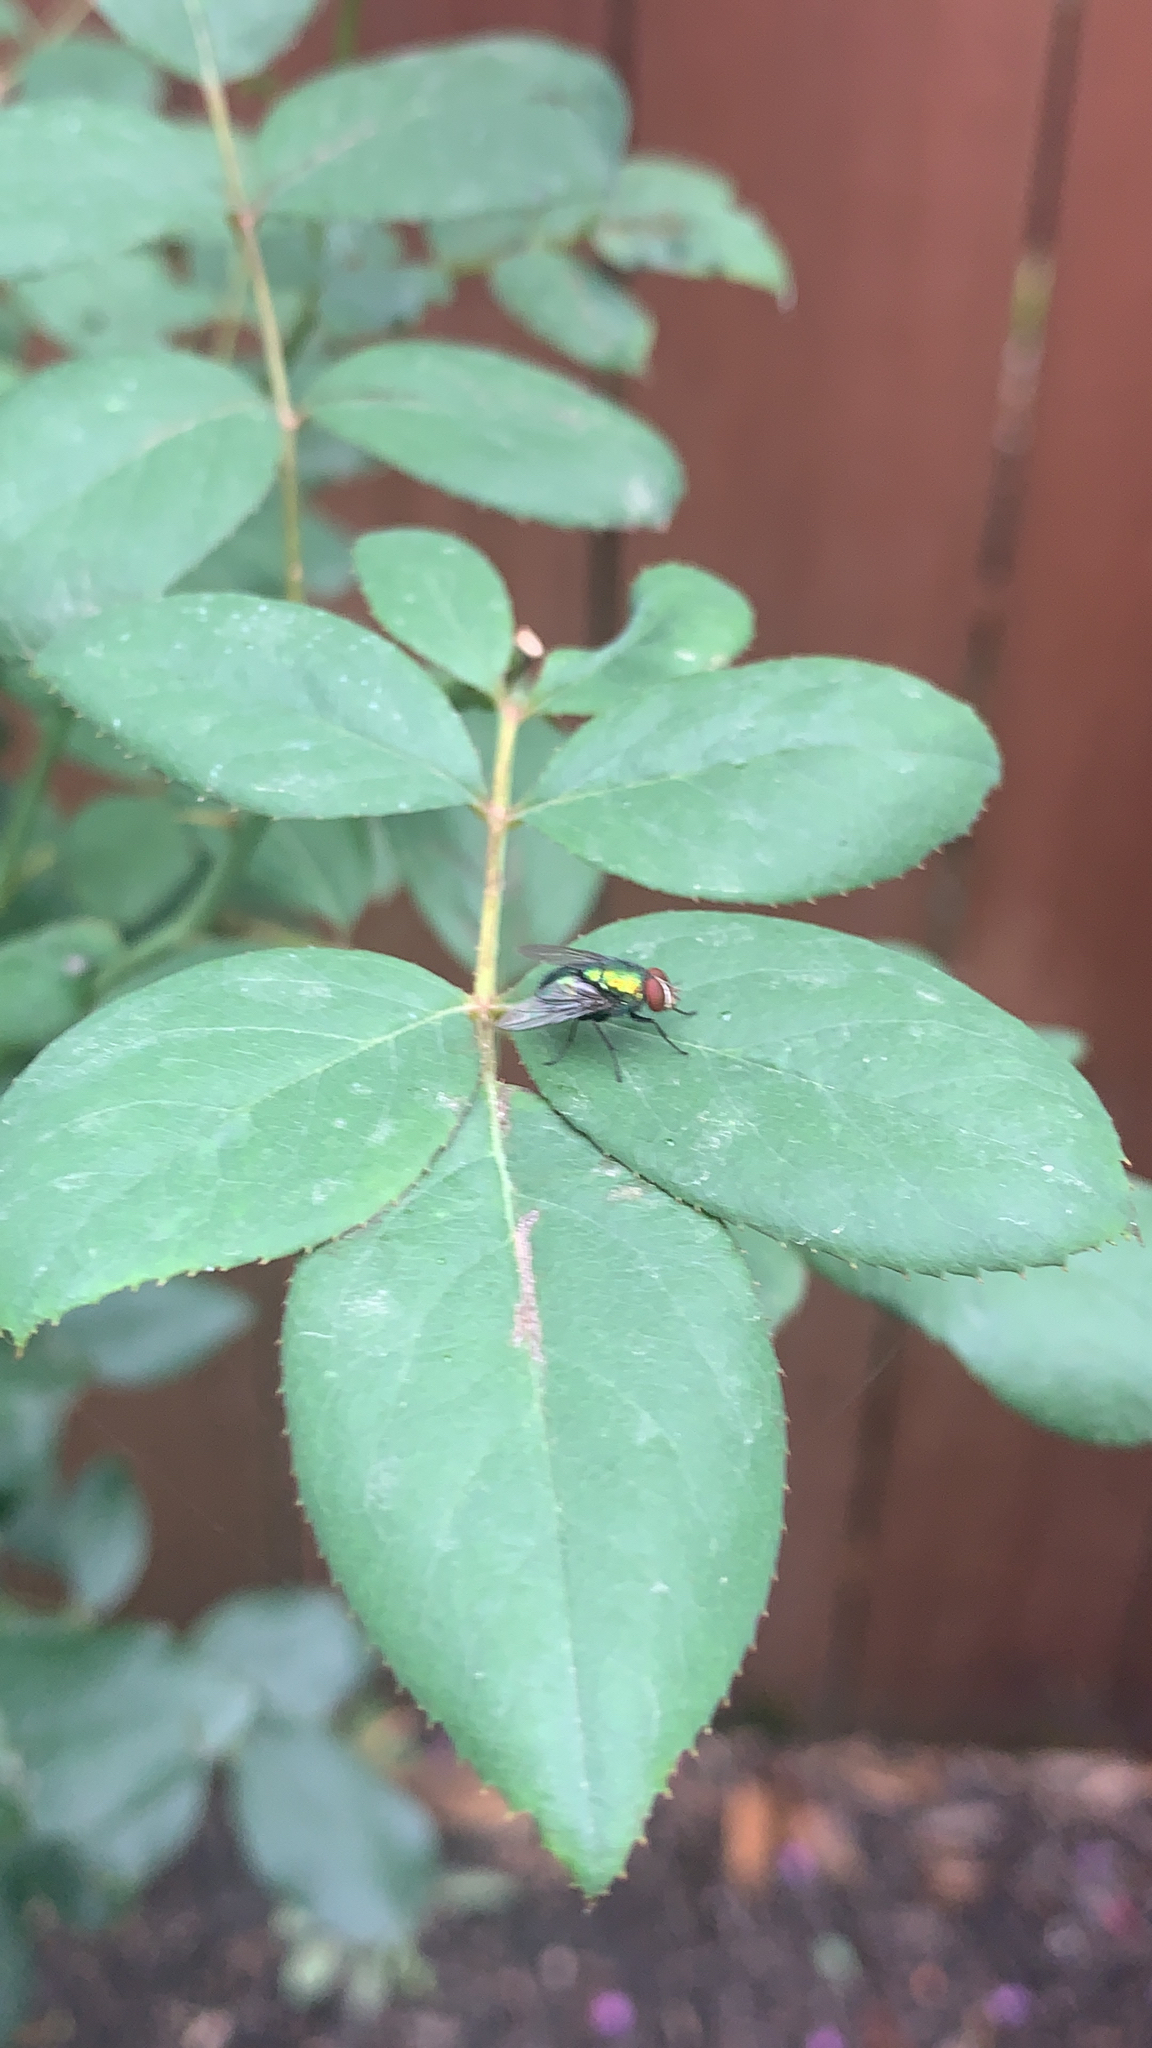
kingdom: Animalia
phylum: Arthropoda
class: Insecta
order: Diptera
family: Calliphoridae
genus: Lucilia
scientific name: Lucilia sericata
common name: Blow fly
